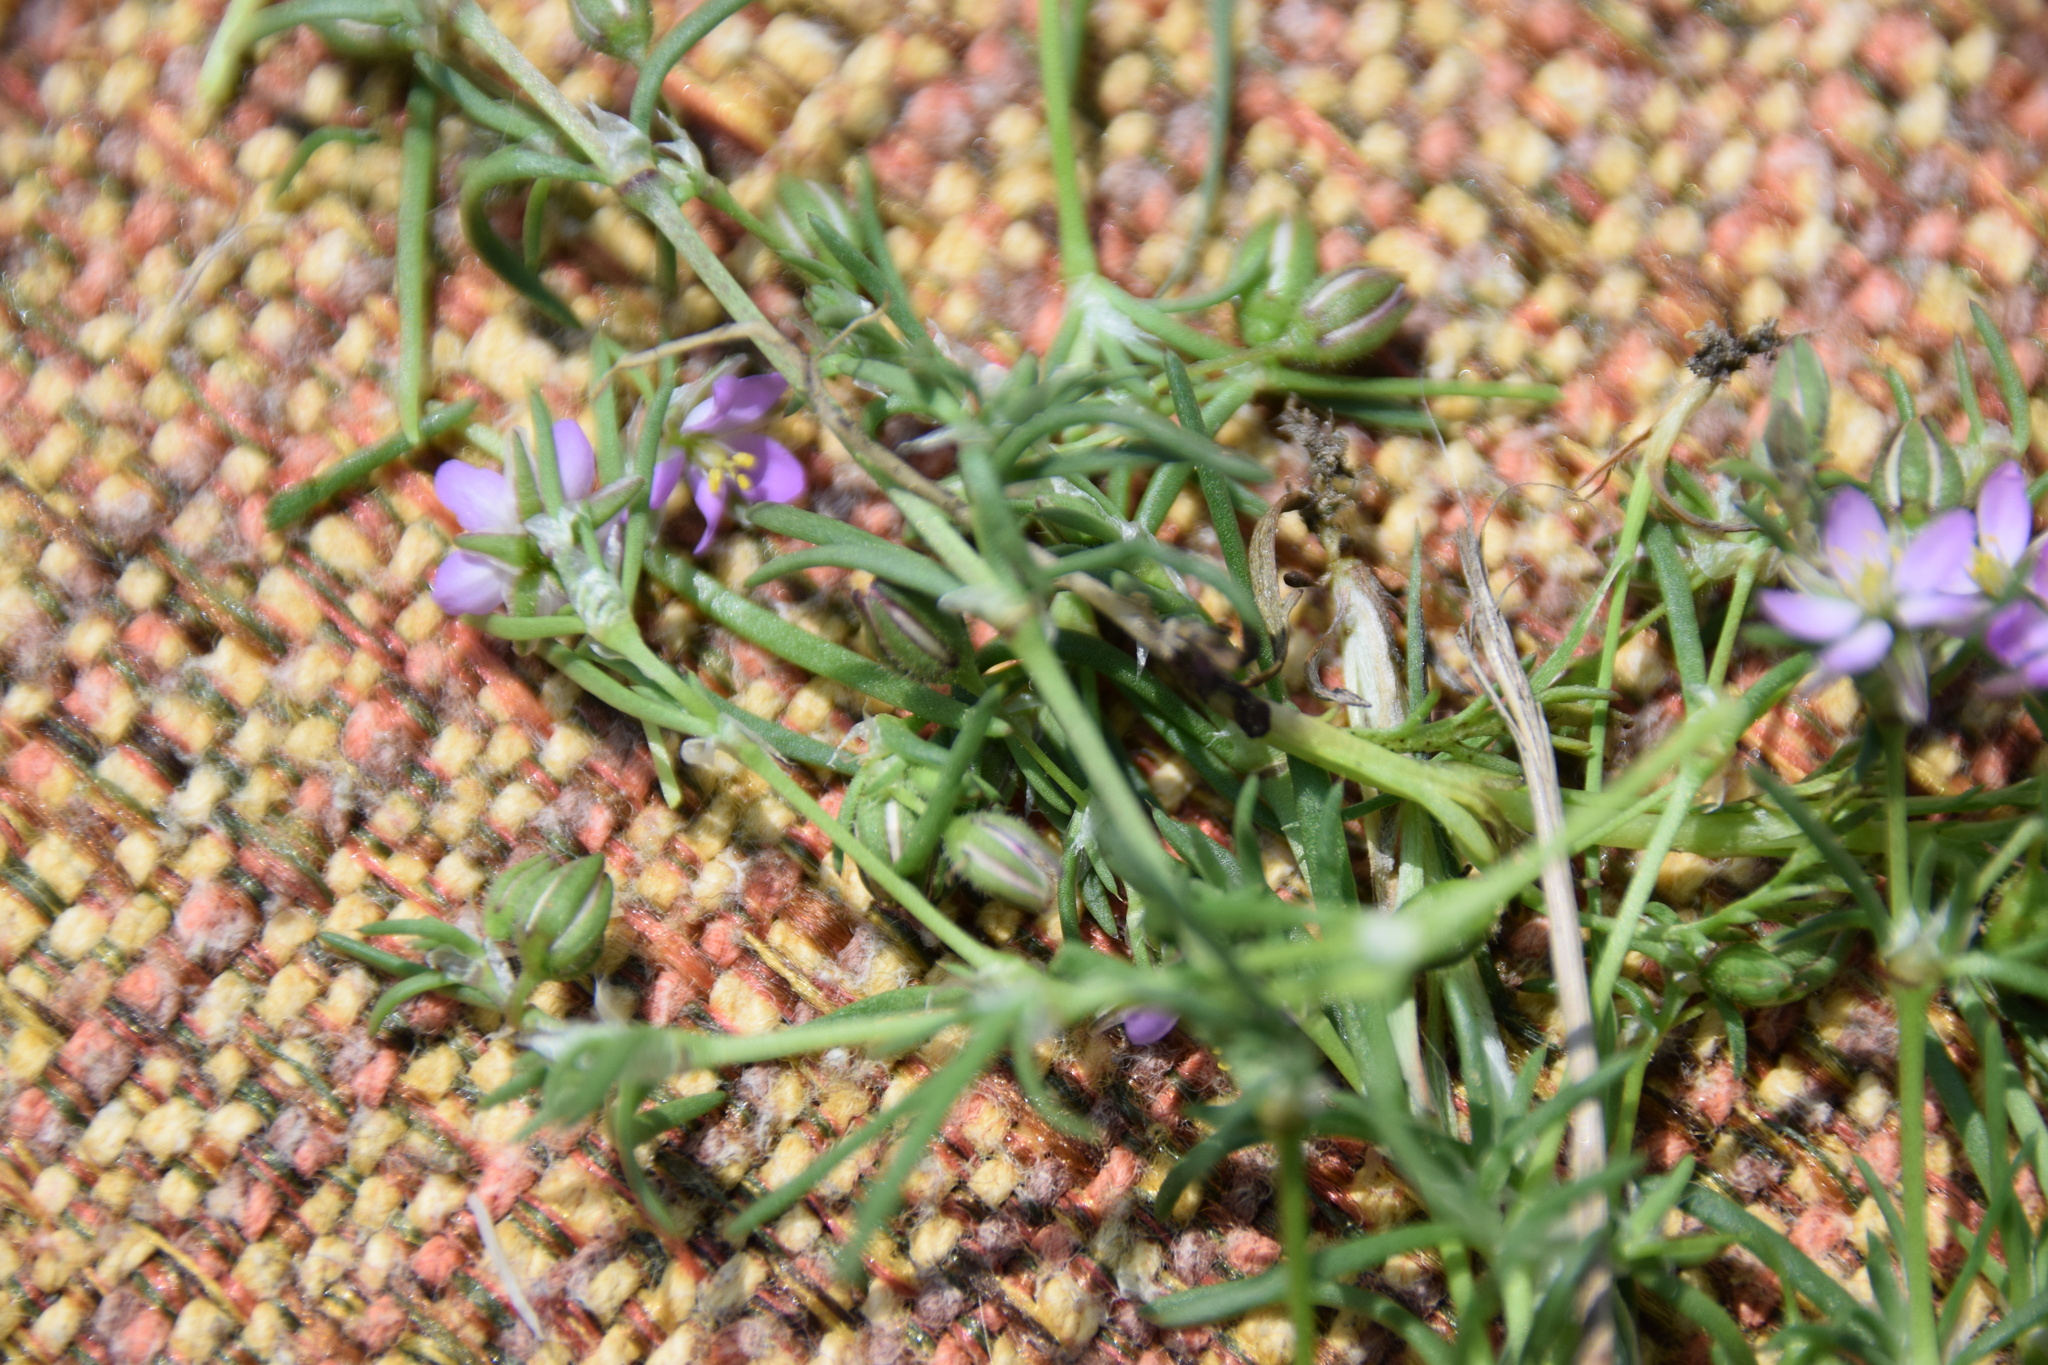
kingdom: Plantae
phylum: Tracheophyta
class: Magnoliopsida
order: Caryophyllales
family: Caryophyllaceae
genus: Spergularia
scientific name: Spergularia rubra
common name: Red sand-spurrey
